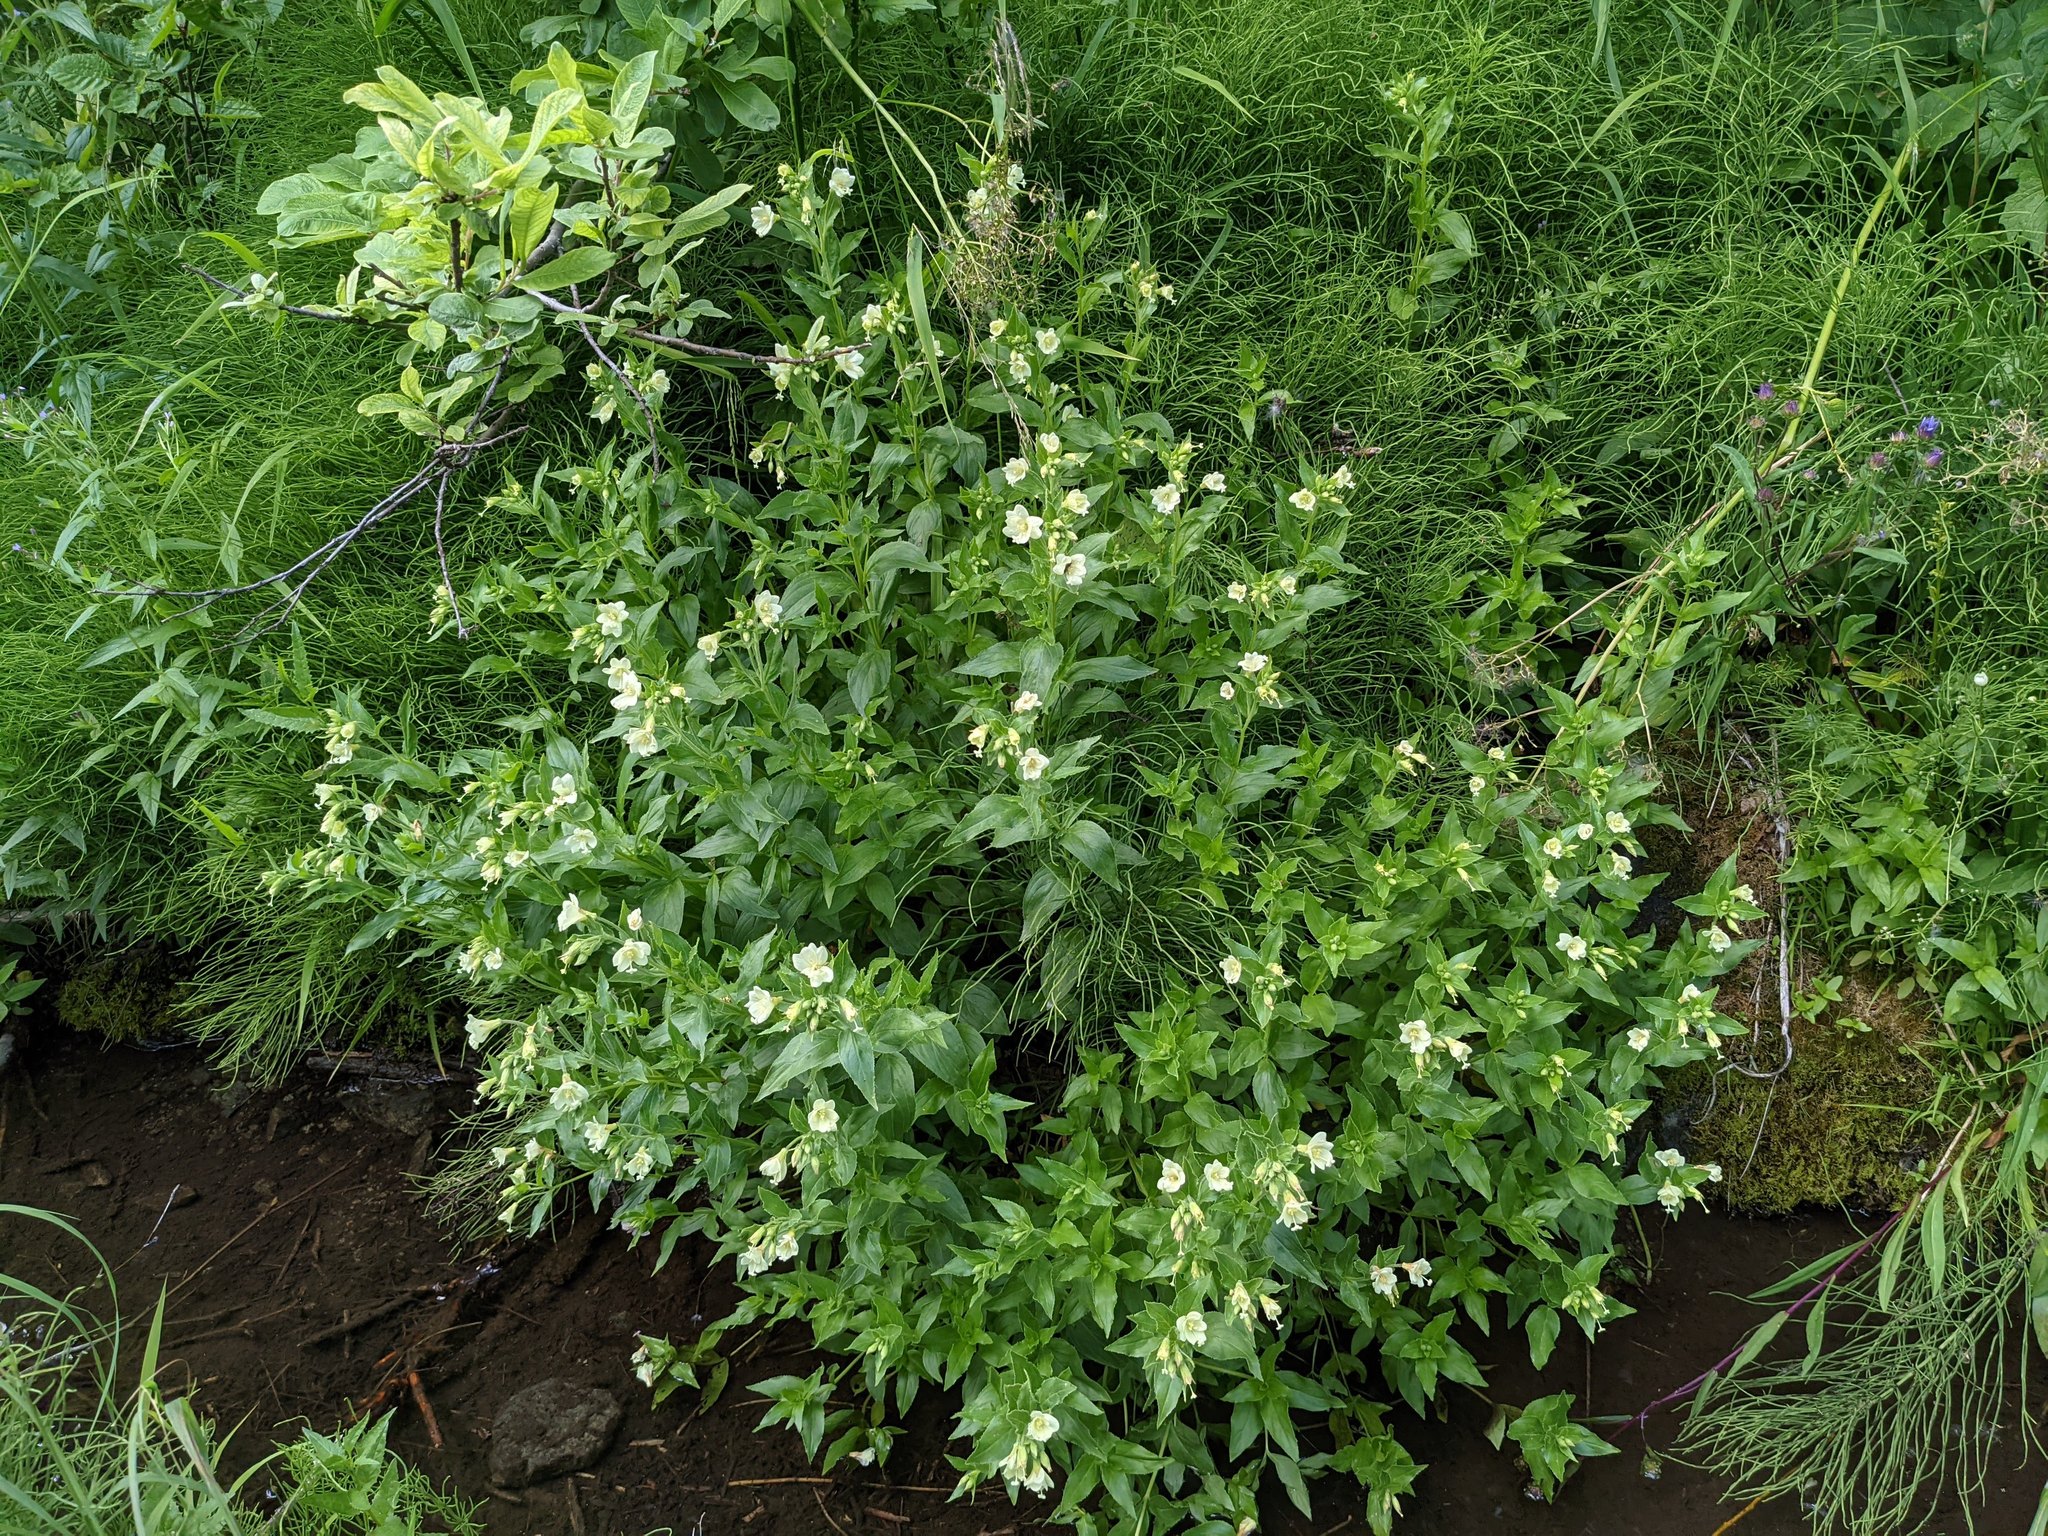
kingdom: Plantae
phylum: Tracheophyta
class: Magnoliopsida
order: Myrtales
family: Onagraceae
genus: Epilobium
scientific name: Epilobium luteum
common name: Yellow willowherb
